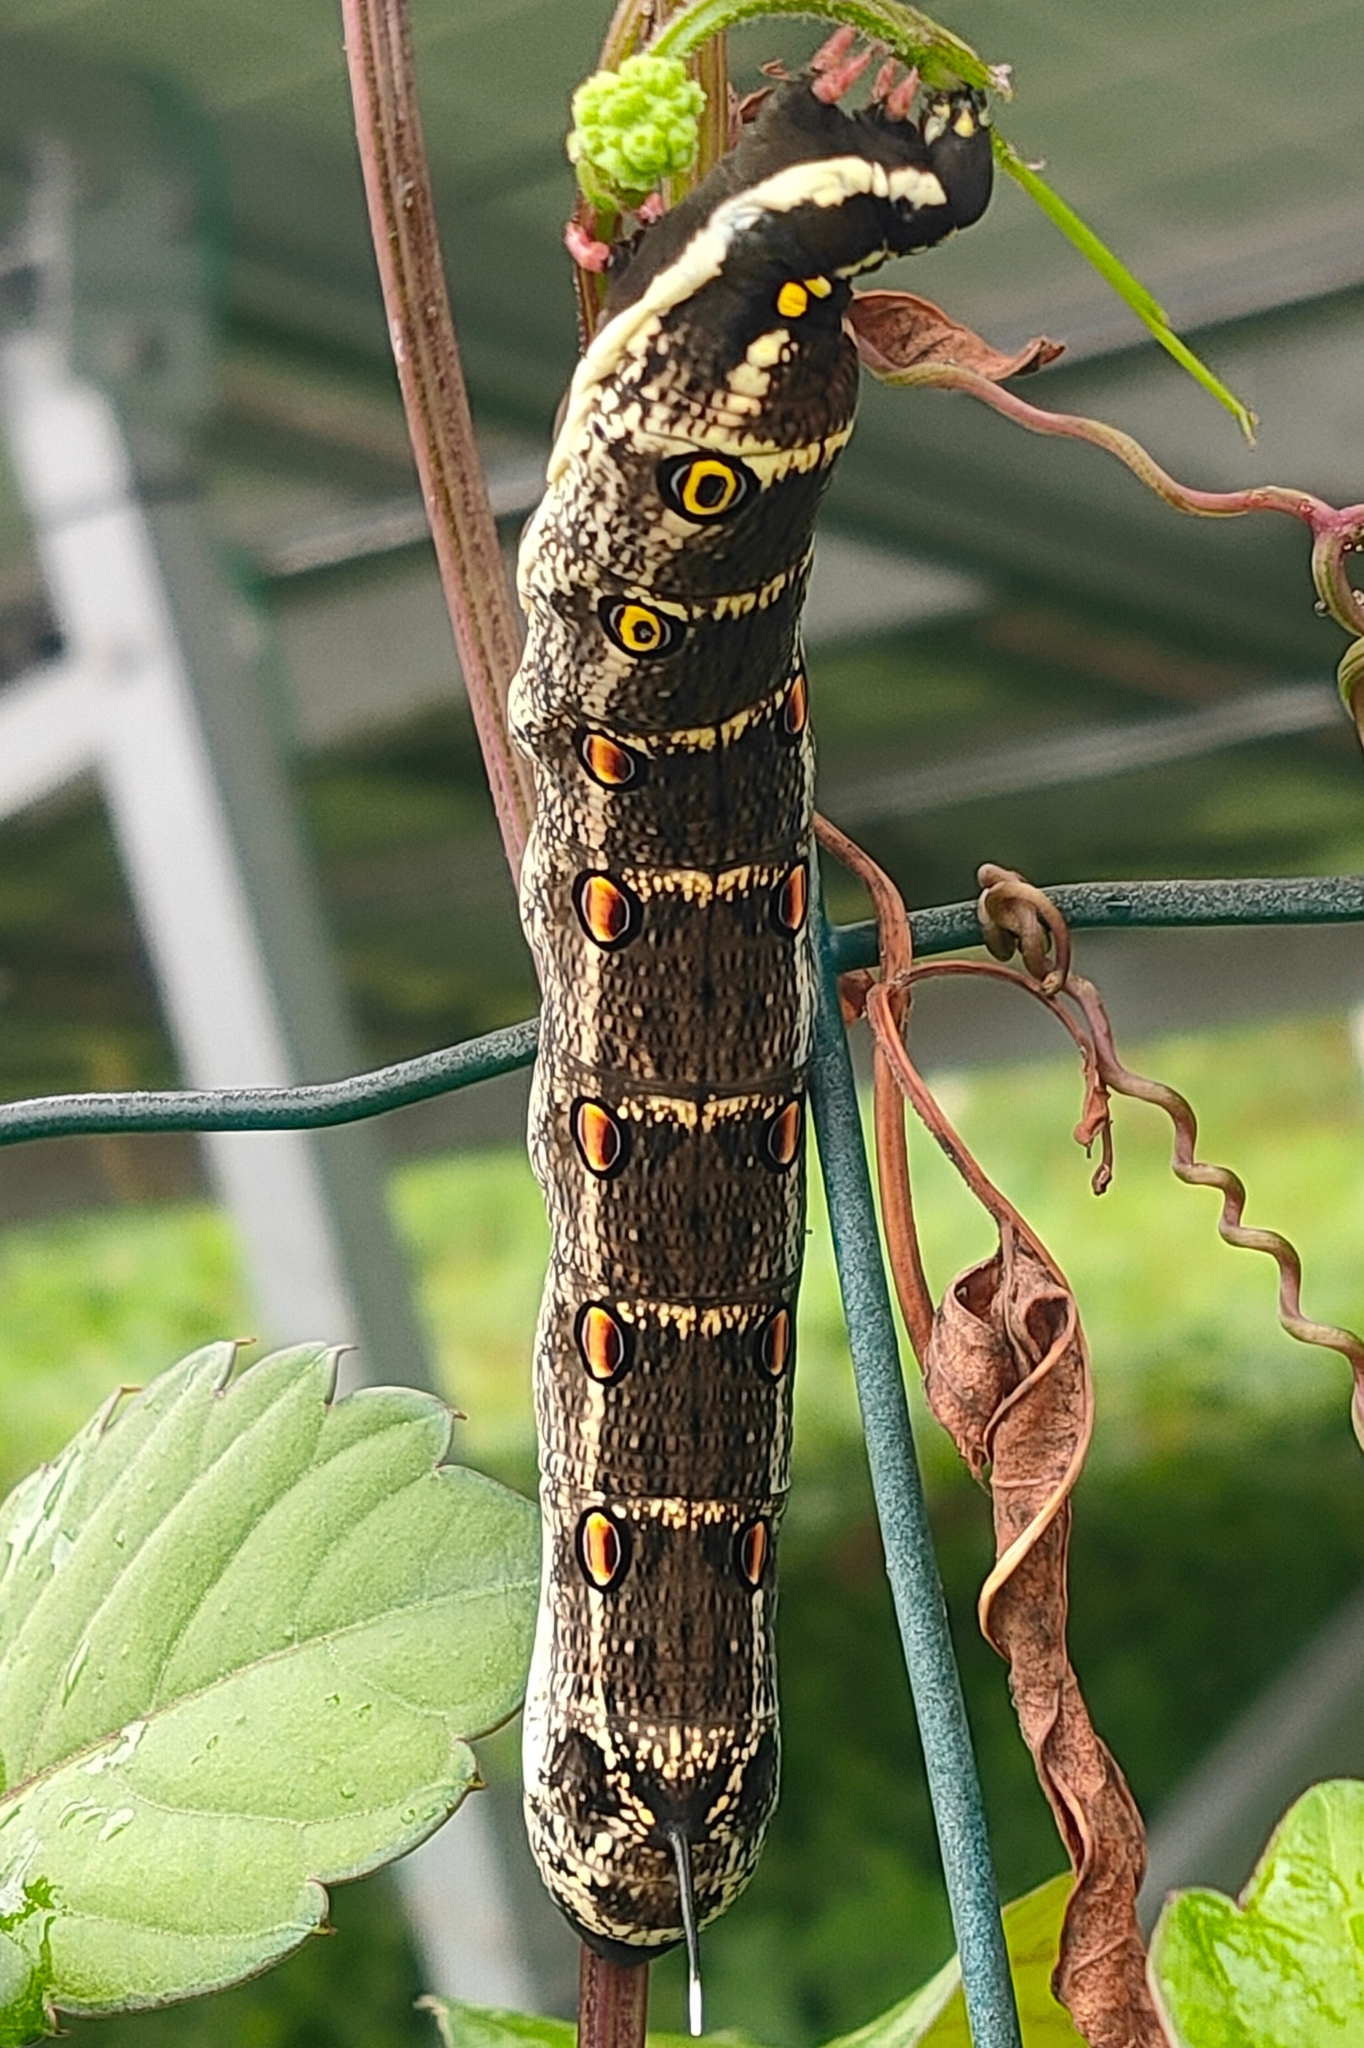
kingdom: Animalia
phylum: Arthropoda
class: Insecta
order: Lepidoptera
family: Sphingidae
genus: Theretra
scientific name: Theretra oldenlandiae
